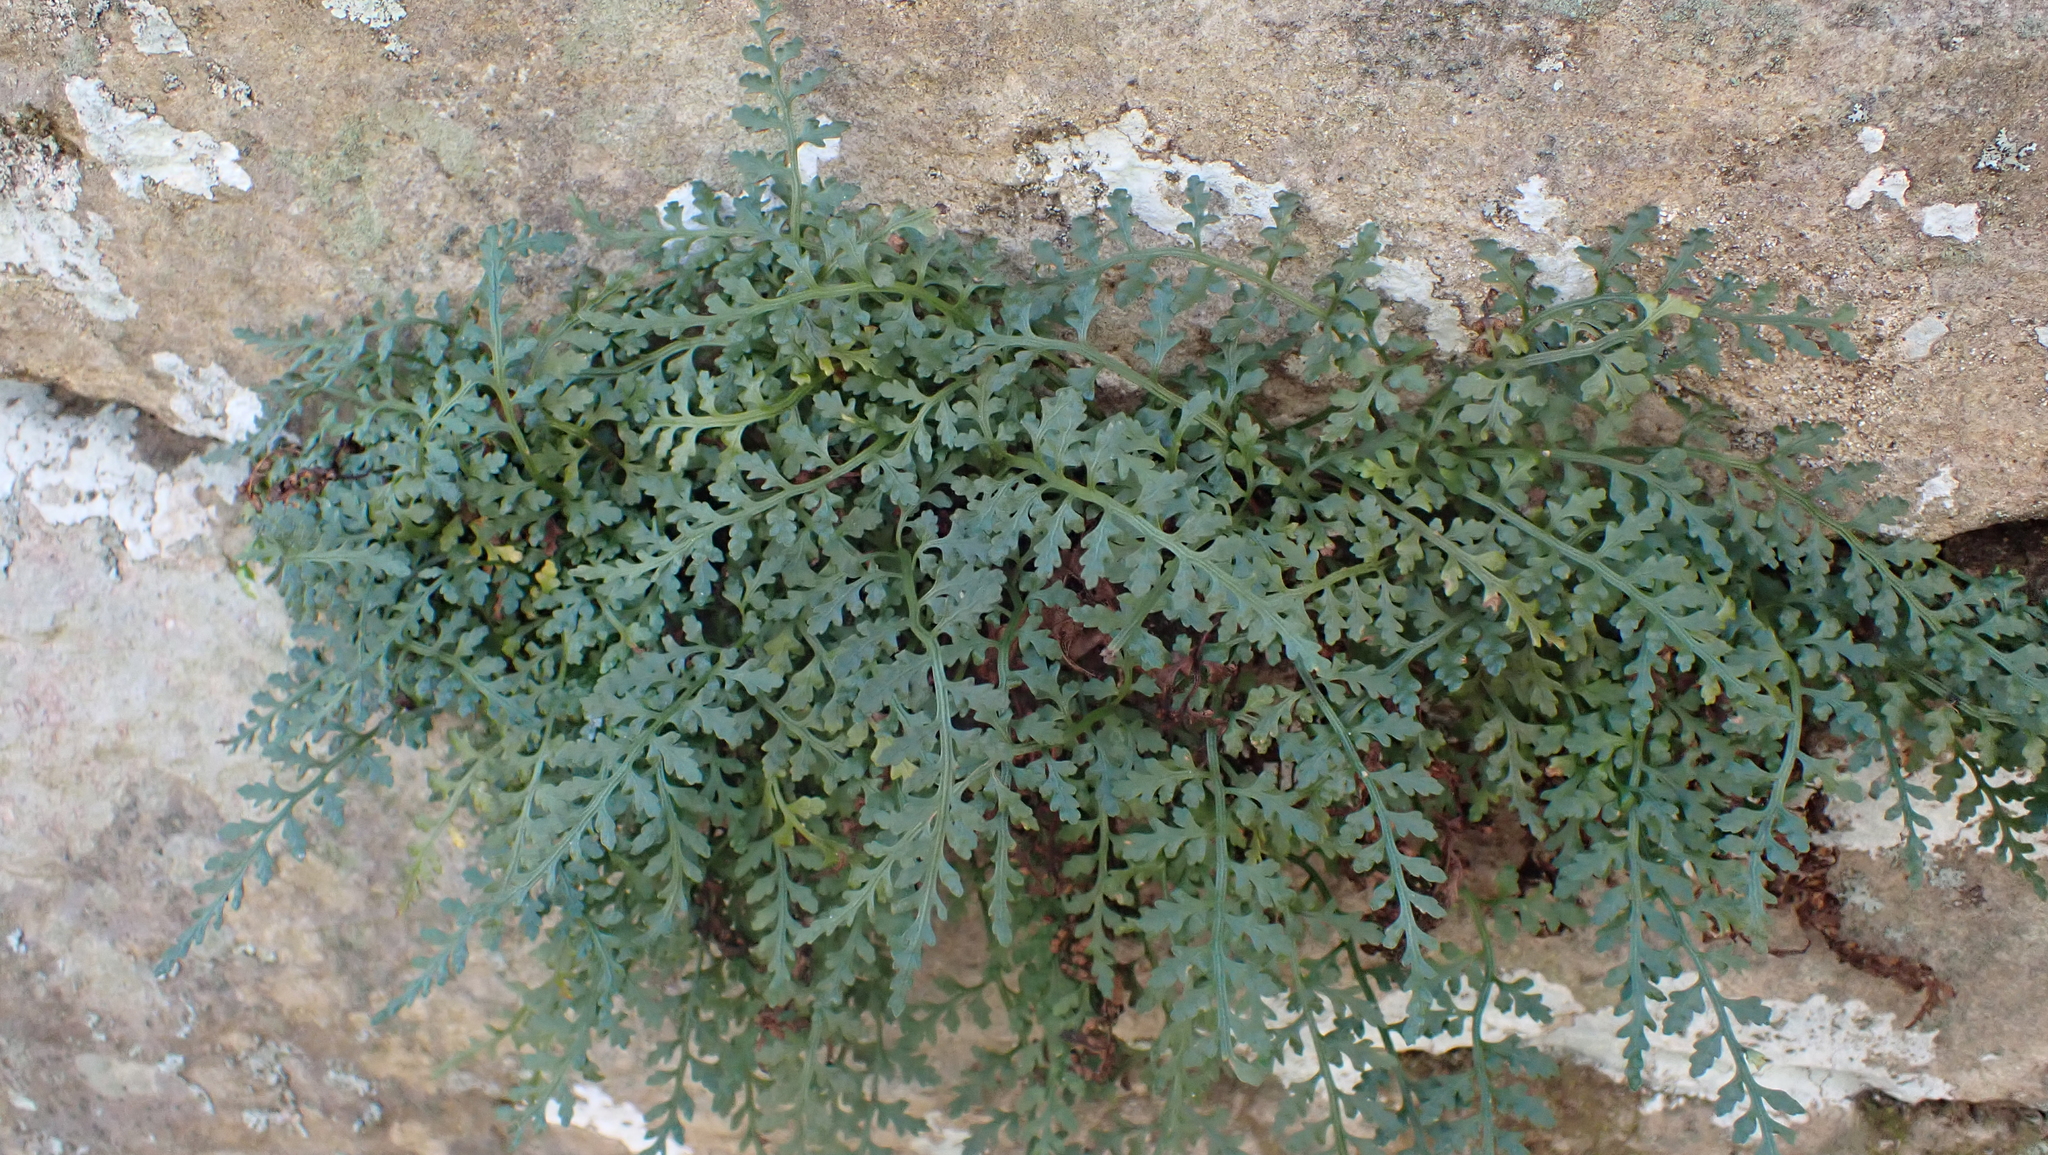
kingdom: Plantae
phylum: Tracheophyta
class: Polypodiopsida
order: Polypodiales
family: Aspleniaceae
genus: Asplenium
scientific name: Asplenium montanum
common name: Mountain spleenwort
